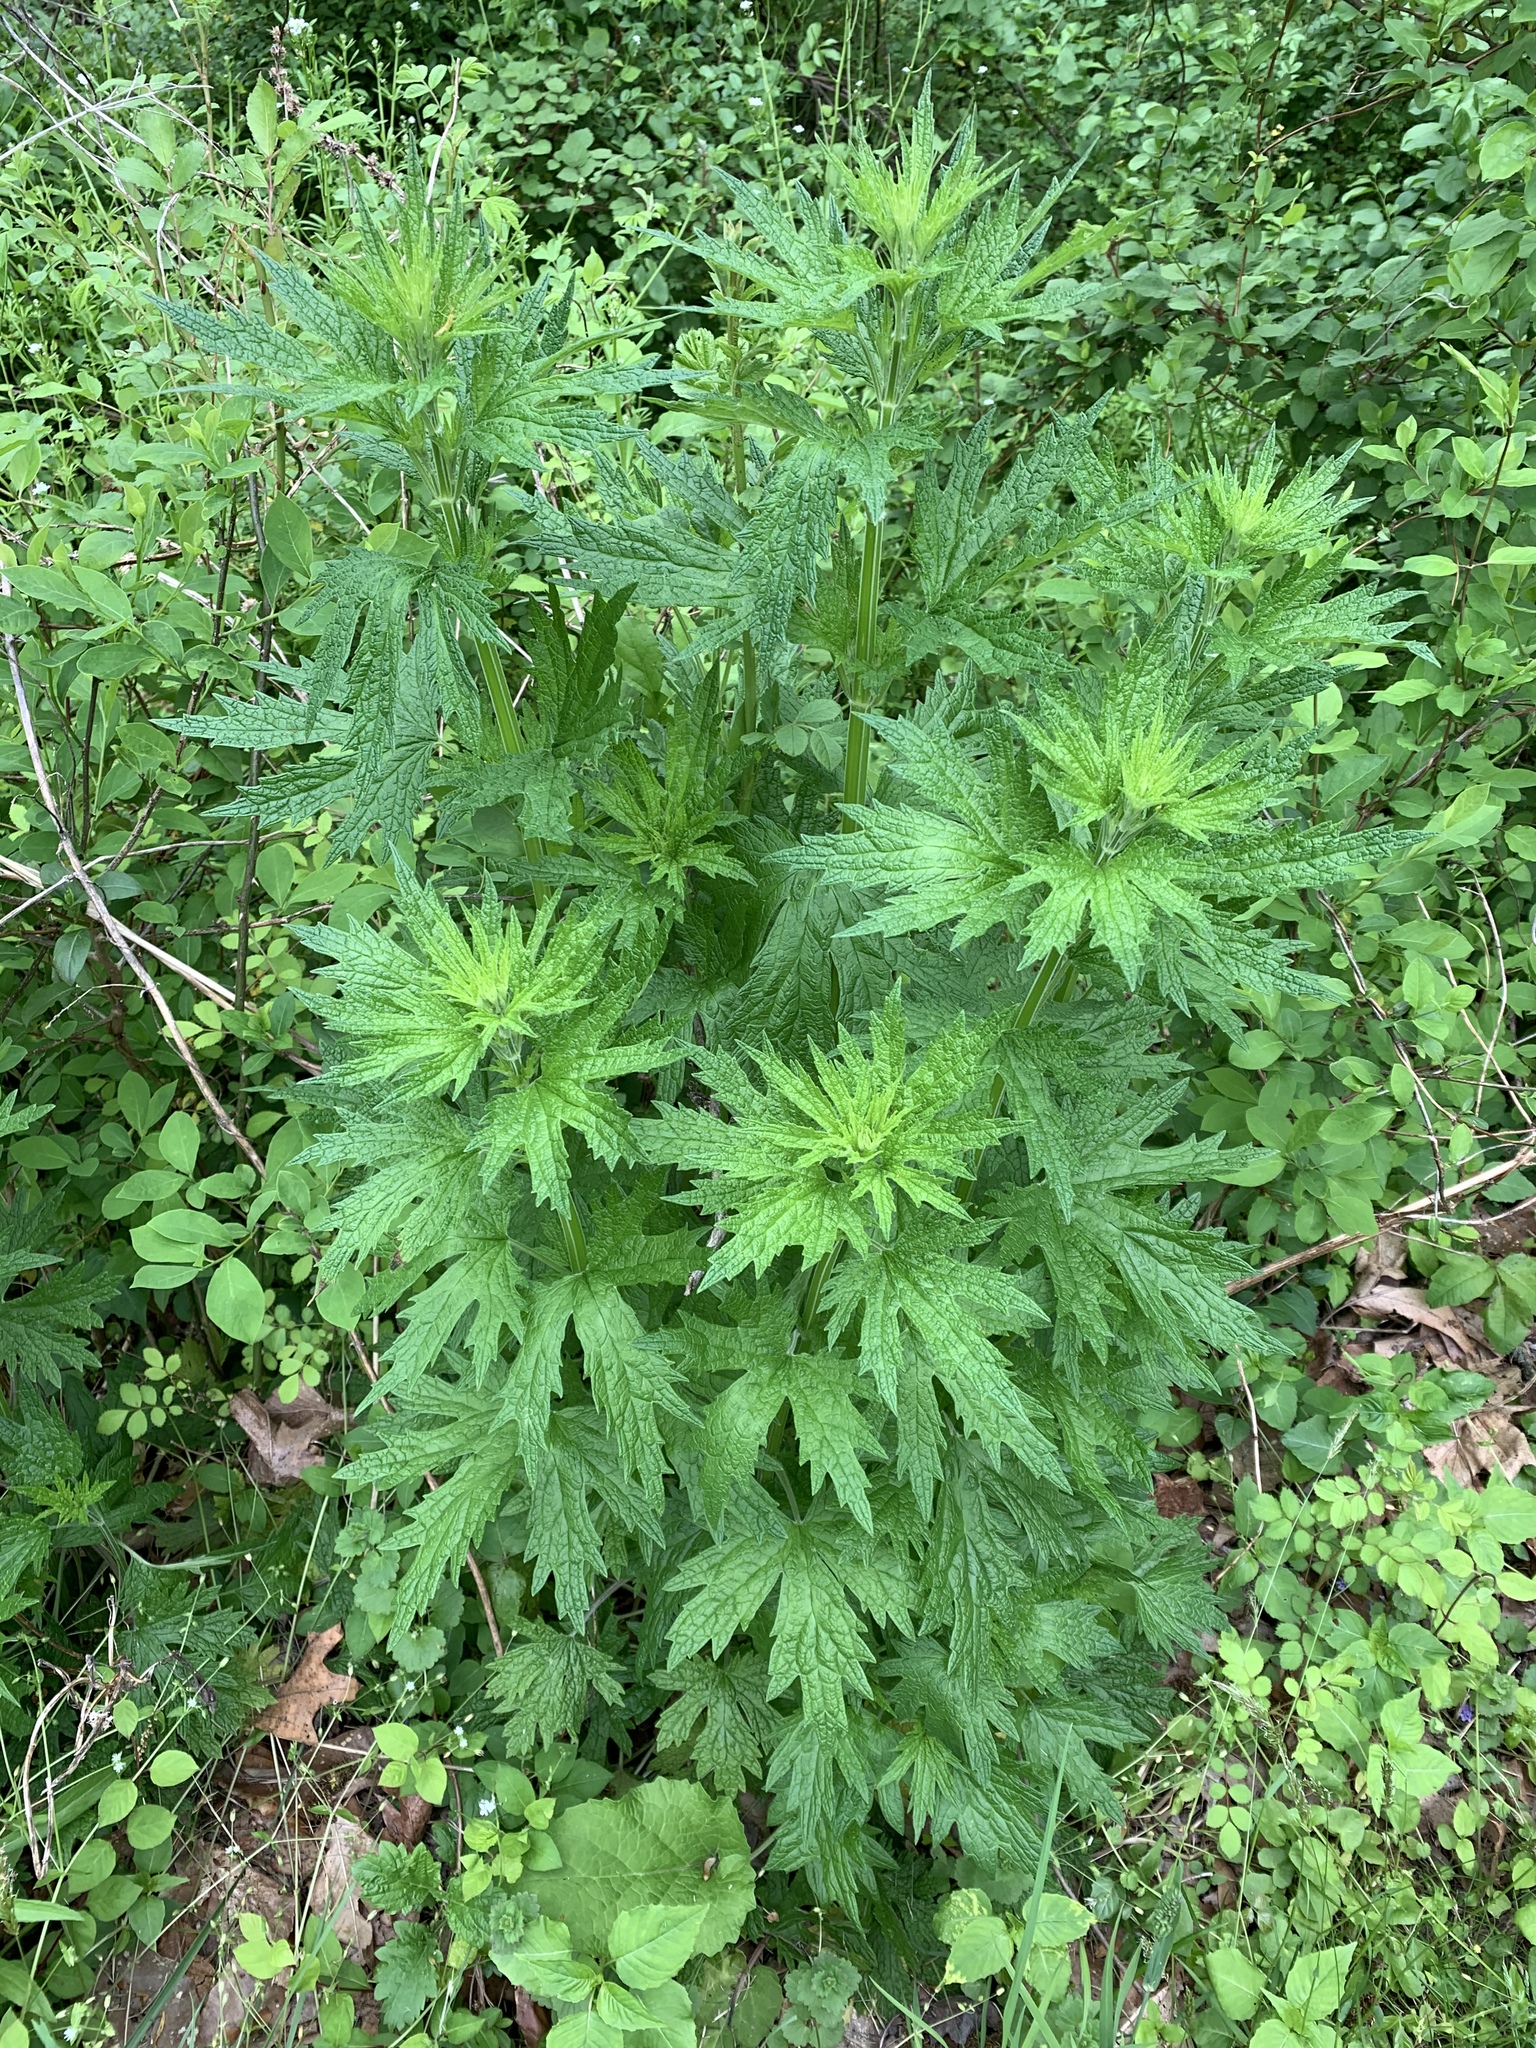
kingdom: Plantae
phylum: Tracheophyta
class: Magnoliopsida
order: Asterales
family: Asteraceae
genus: Artemisia
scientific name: Artemisia vulgaris
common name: Mugwort
